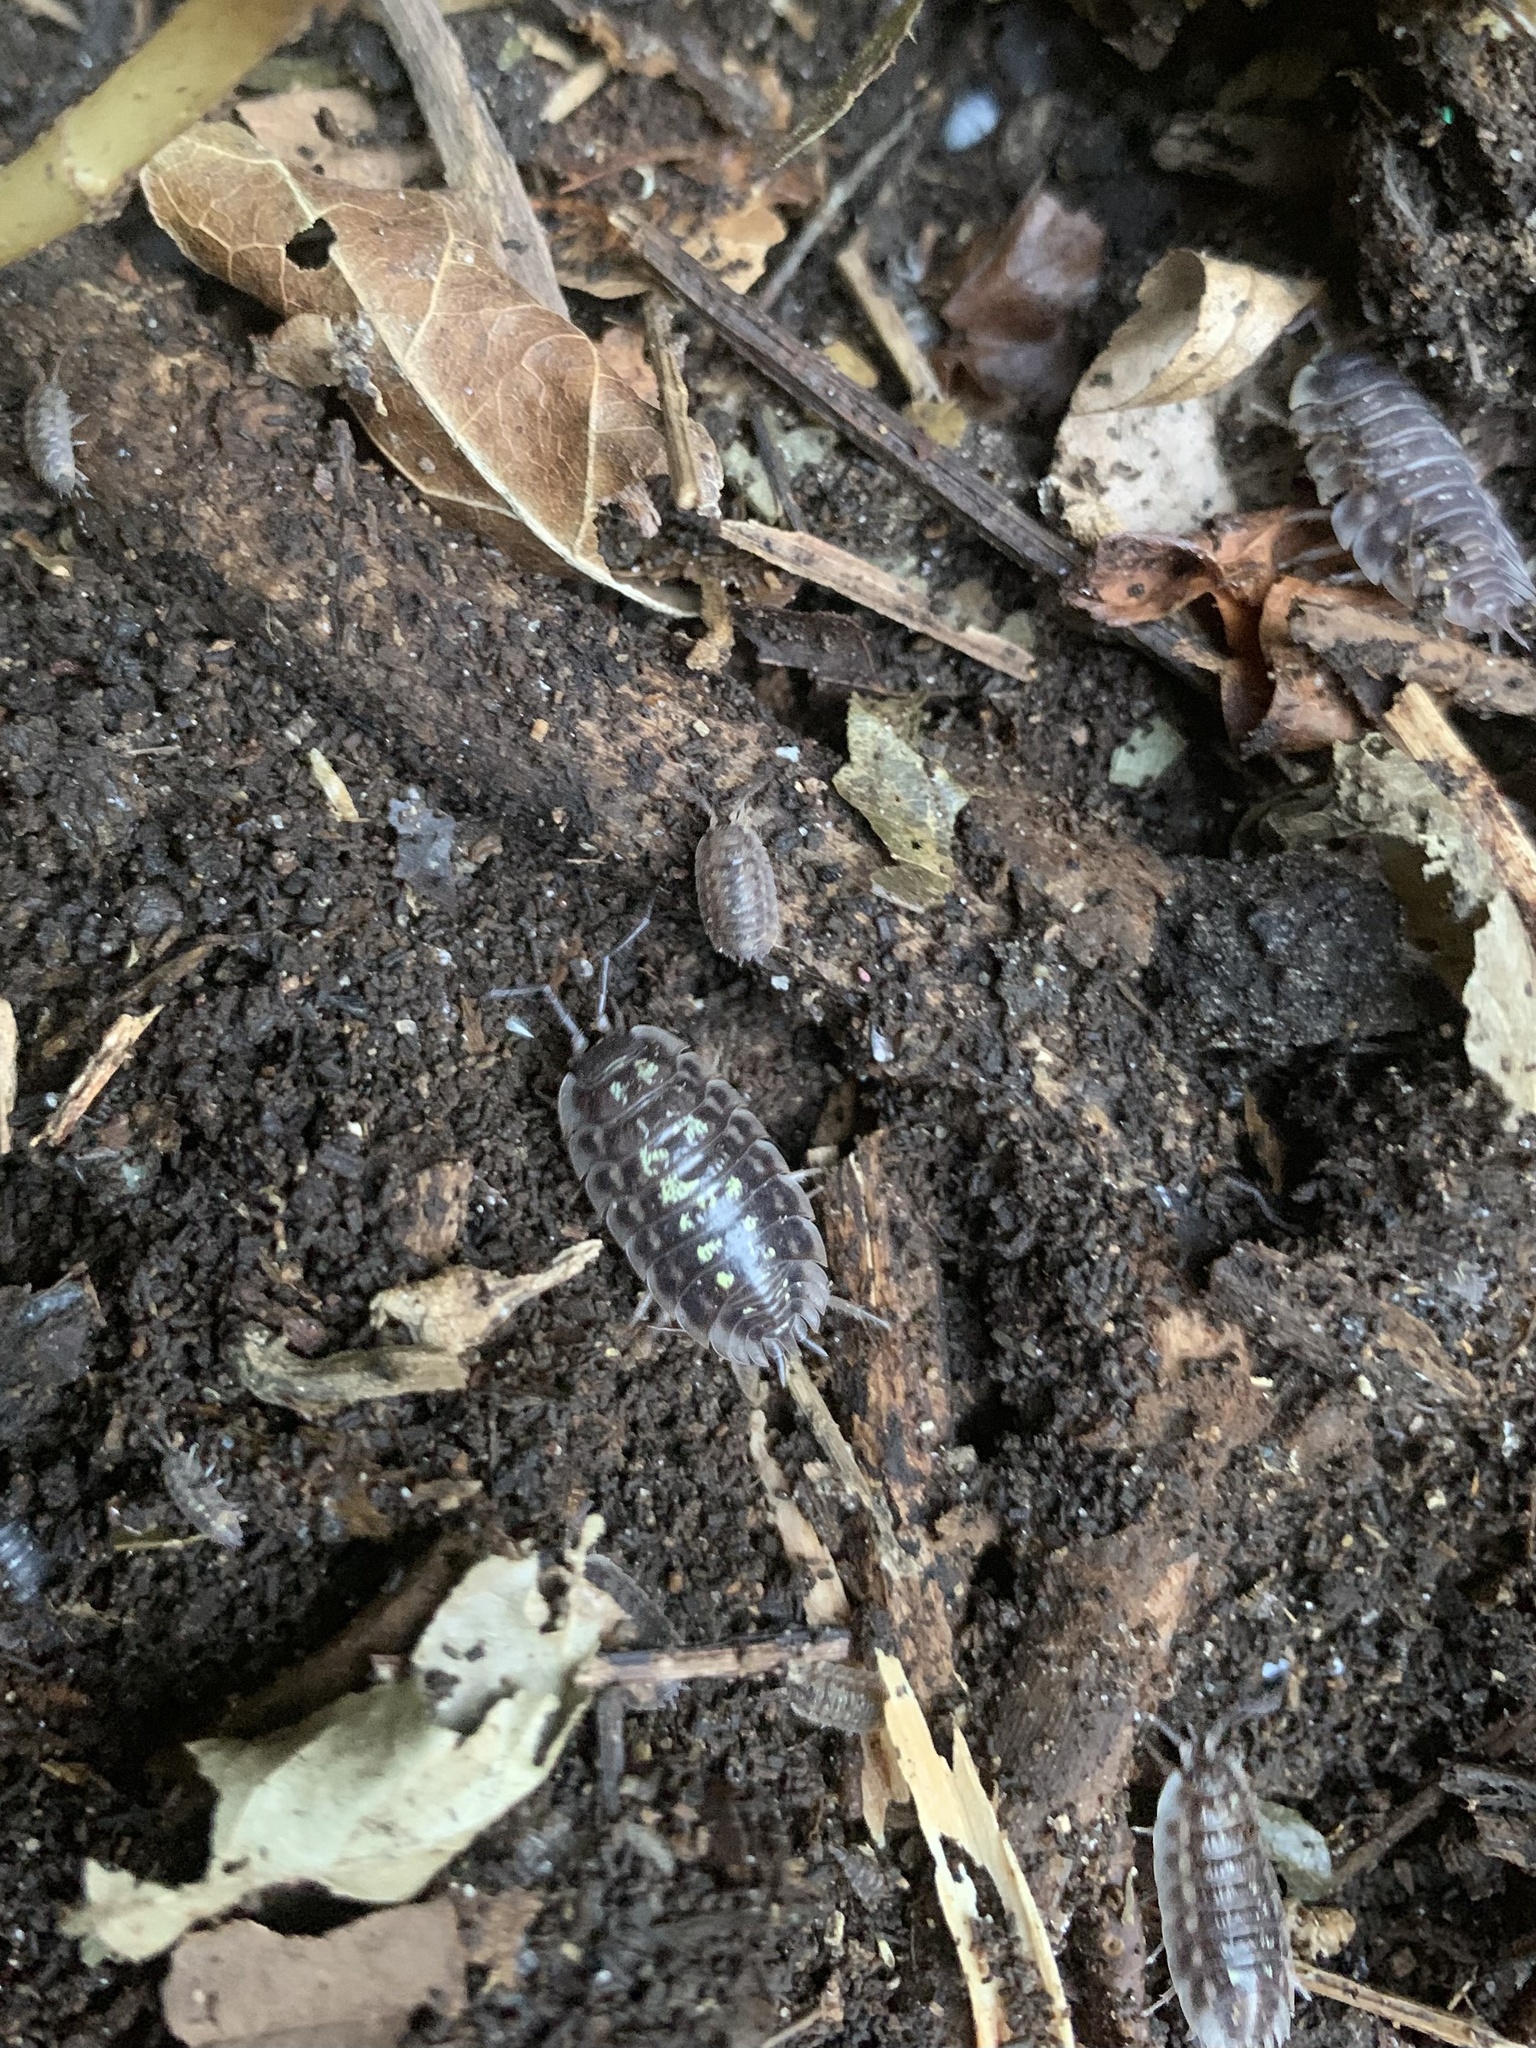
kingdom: Animalia
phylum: Arthropoda
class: Malacostraca
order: Isopoda
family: Oniscidae
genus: Oniscus
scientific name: Oniscus asellus
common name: Common shiny woodlouse
